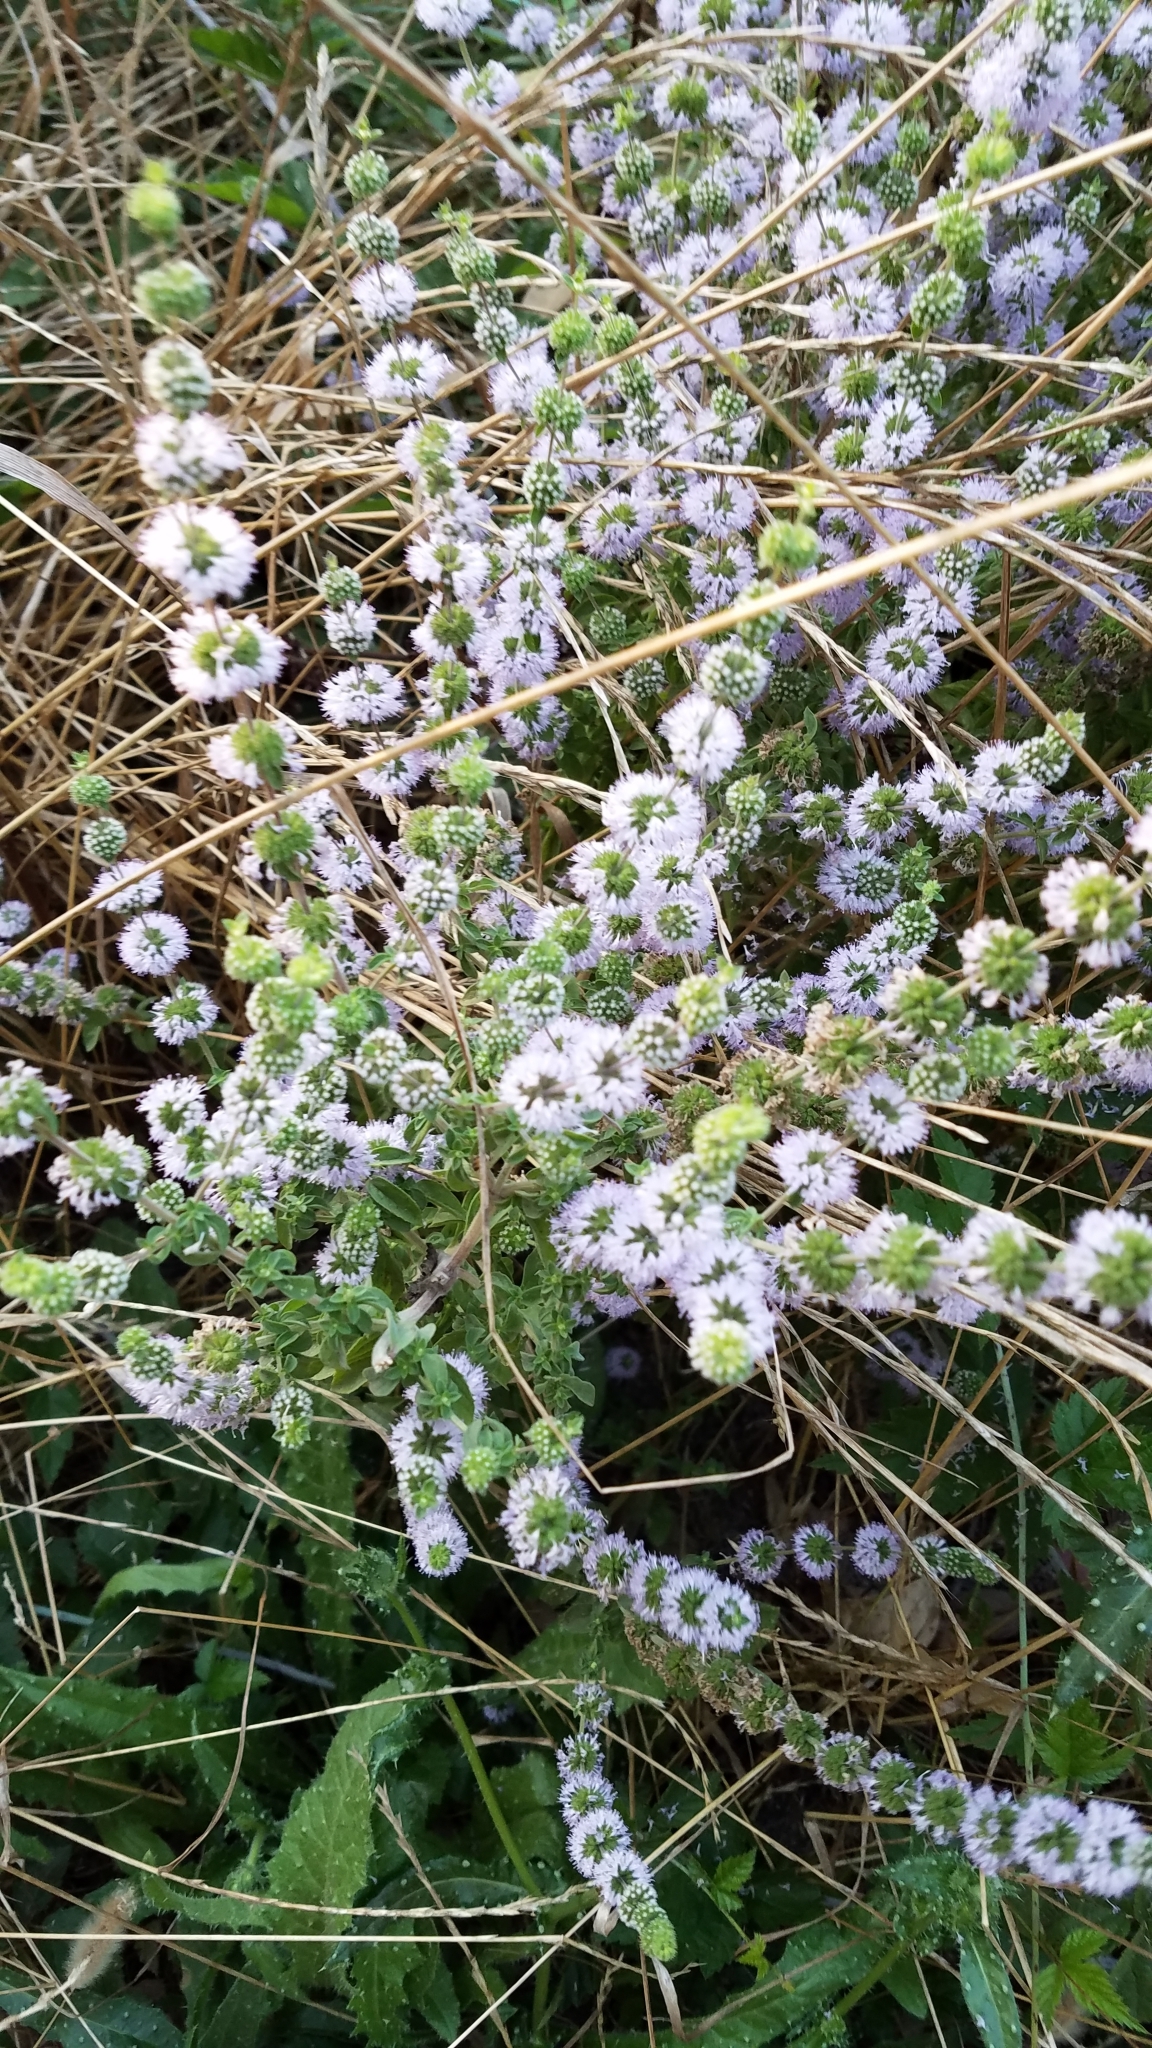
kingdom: Plantae
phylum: Tracheophyta
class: Magnoliopsida
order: Lamiales
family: Lamiaceae
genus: Mentha
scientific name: Mentha pulegium
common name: Pennyroyal
